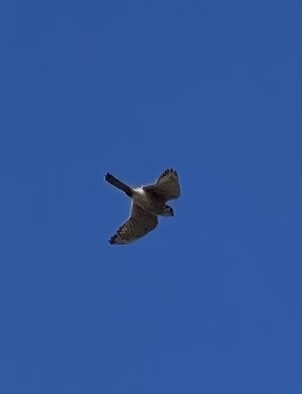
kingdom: Animalia
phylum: Chordata
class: Aves
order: Falconiformes
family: Falconidae
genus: Falco
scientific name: Falco sparverius
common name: American kestrel
